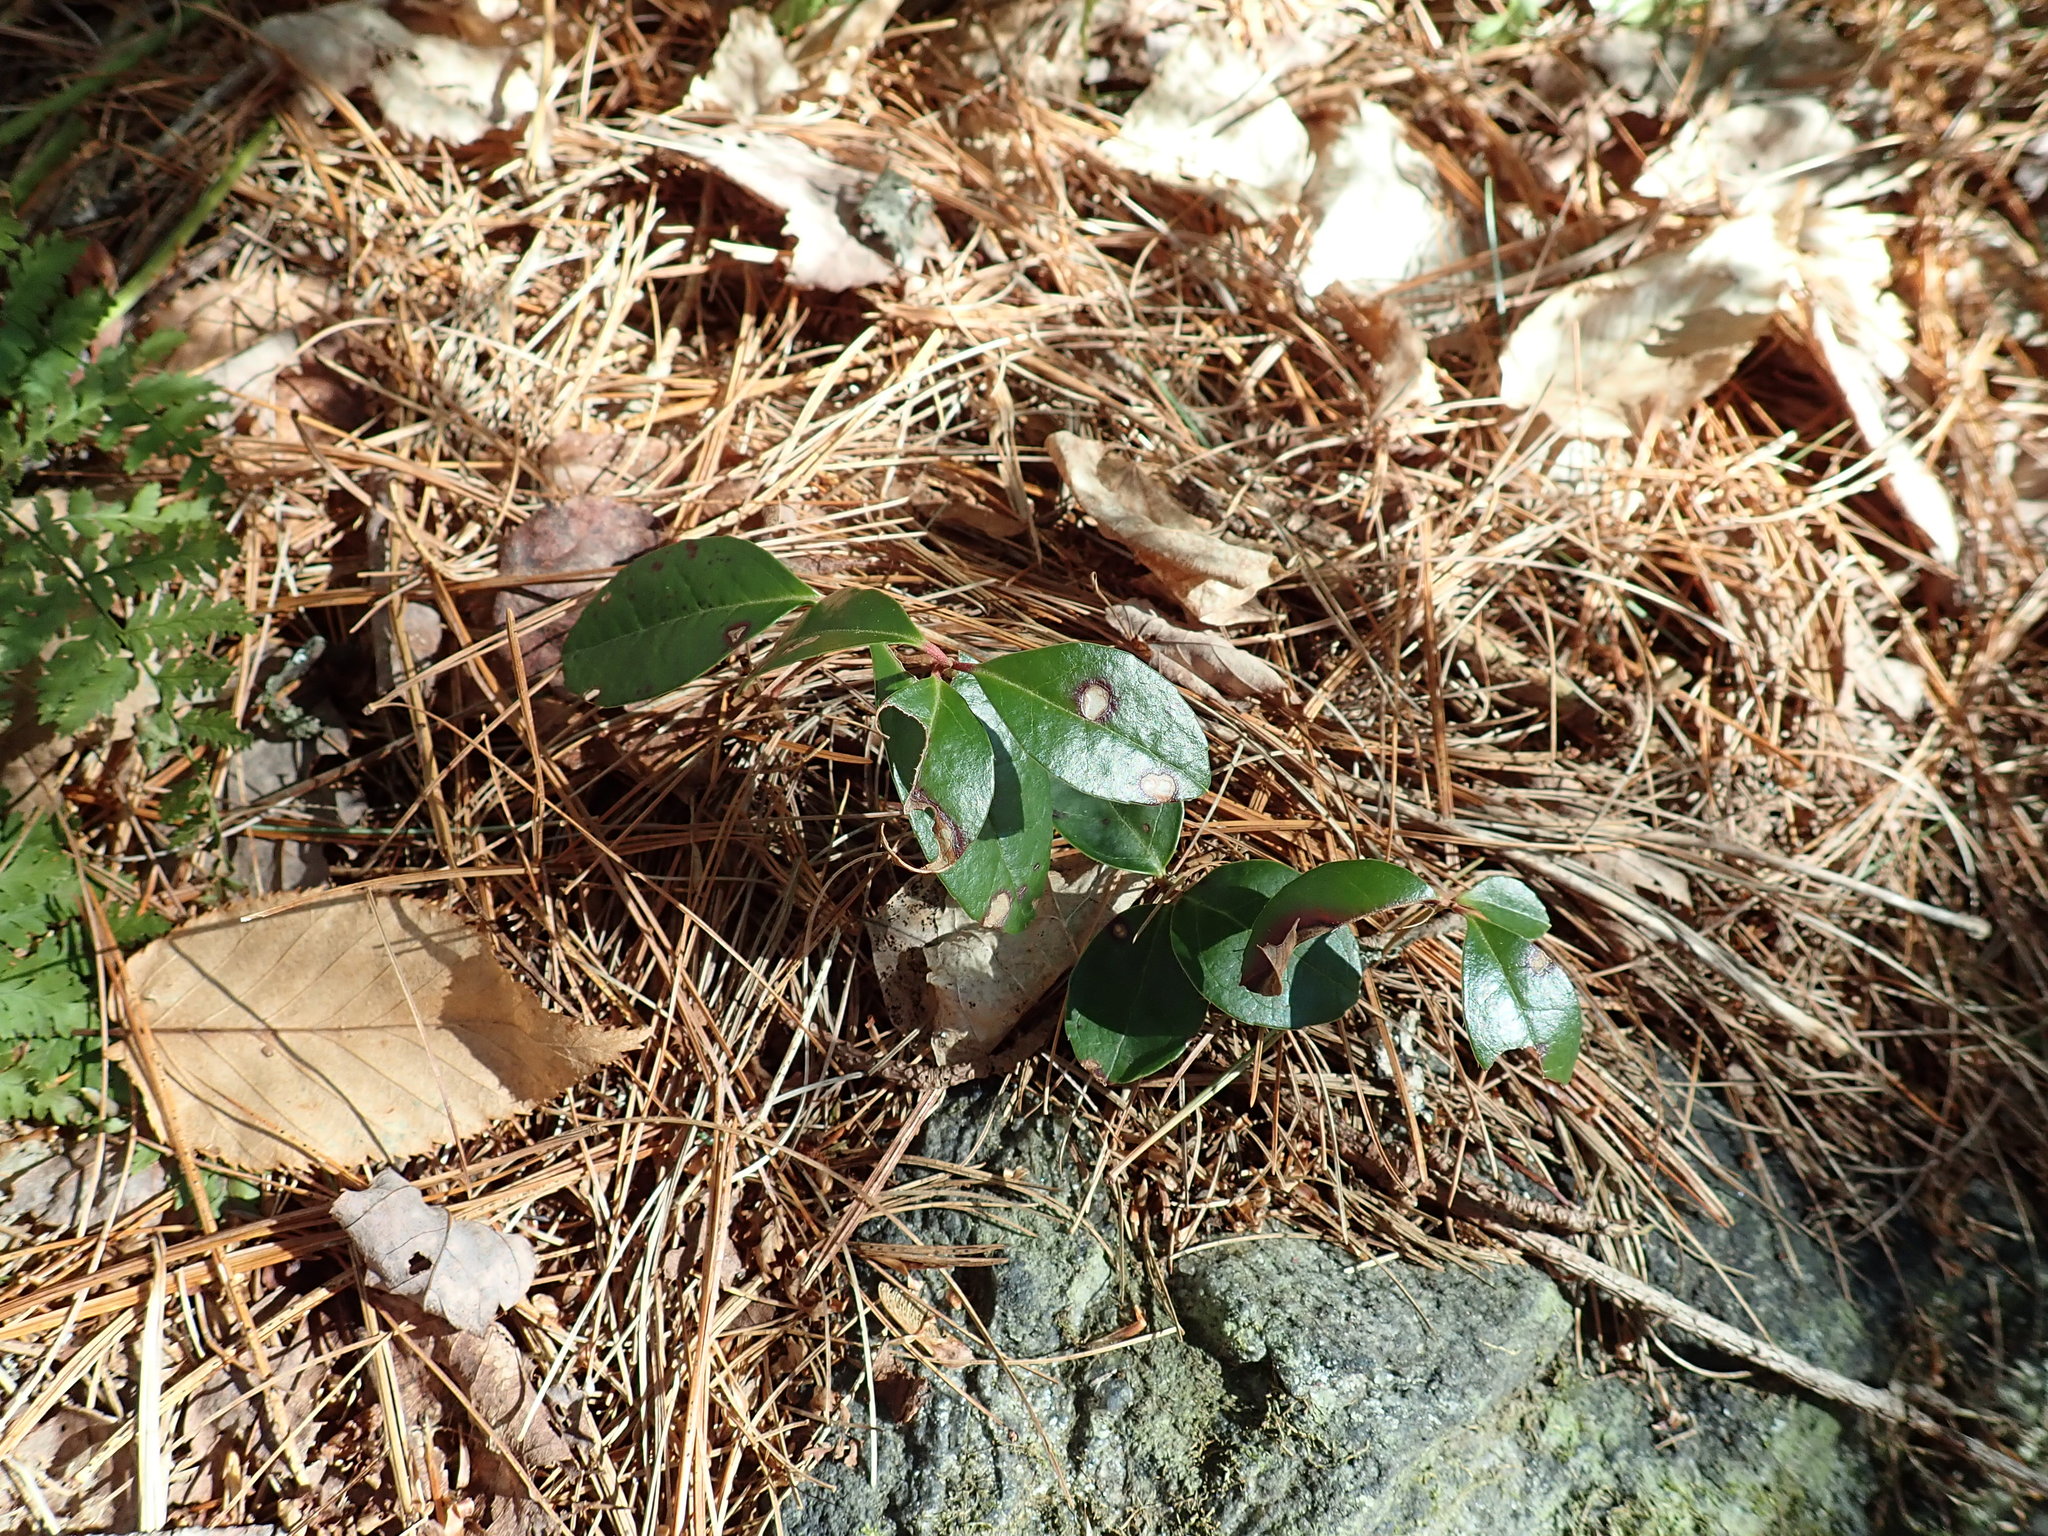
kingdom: Plantae
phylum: Tracheophyta
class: Magnoliopsida
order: Ericales
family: Ericaceae
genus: Gaultheria
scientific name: Gaultheria procumbens
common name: Checkerberry
